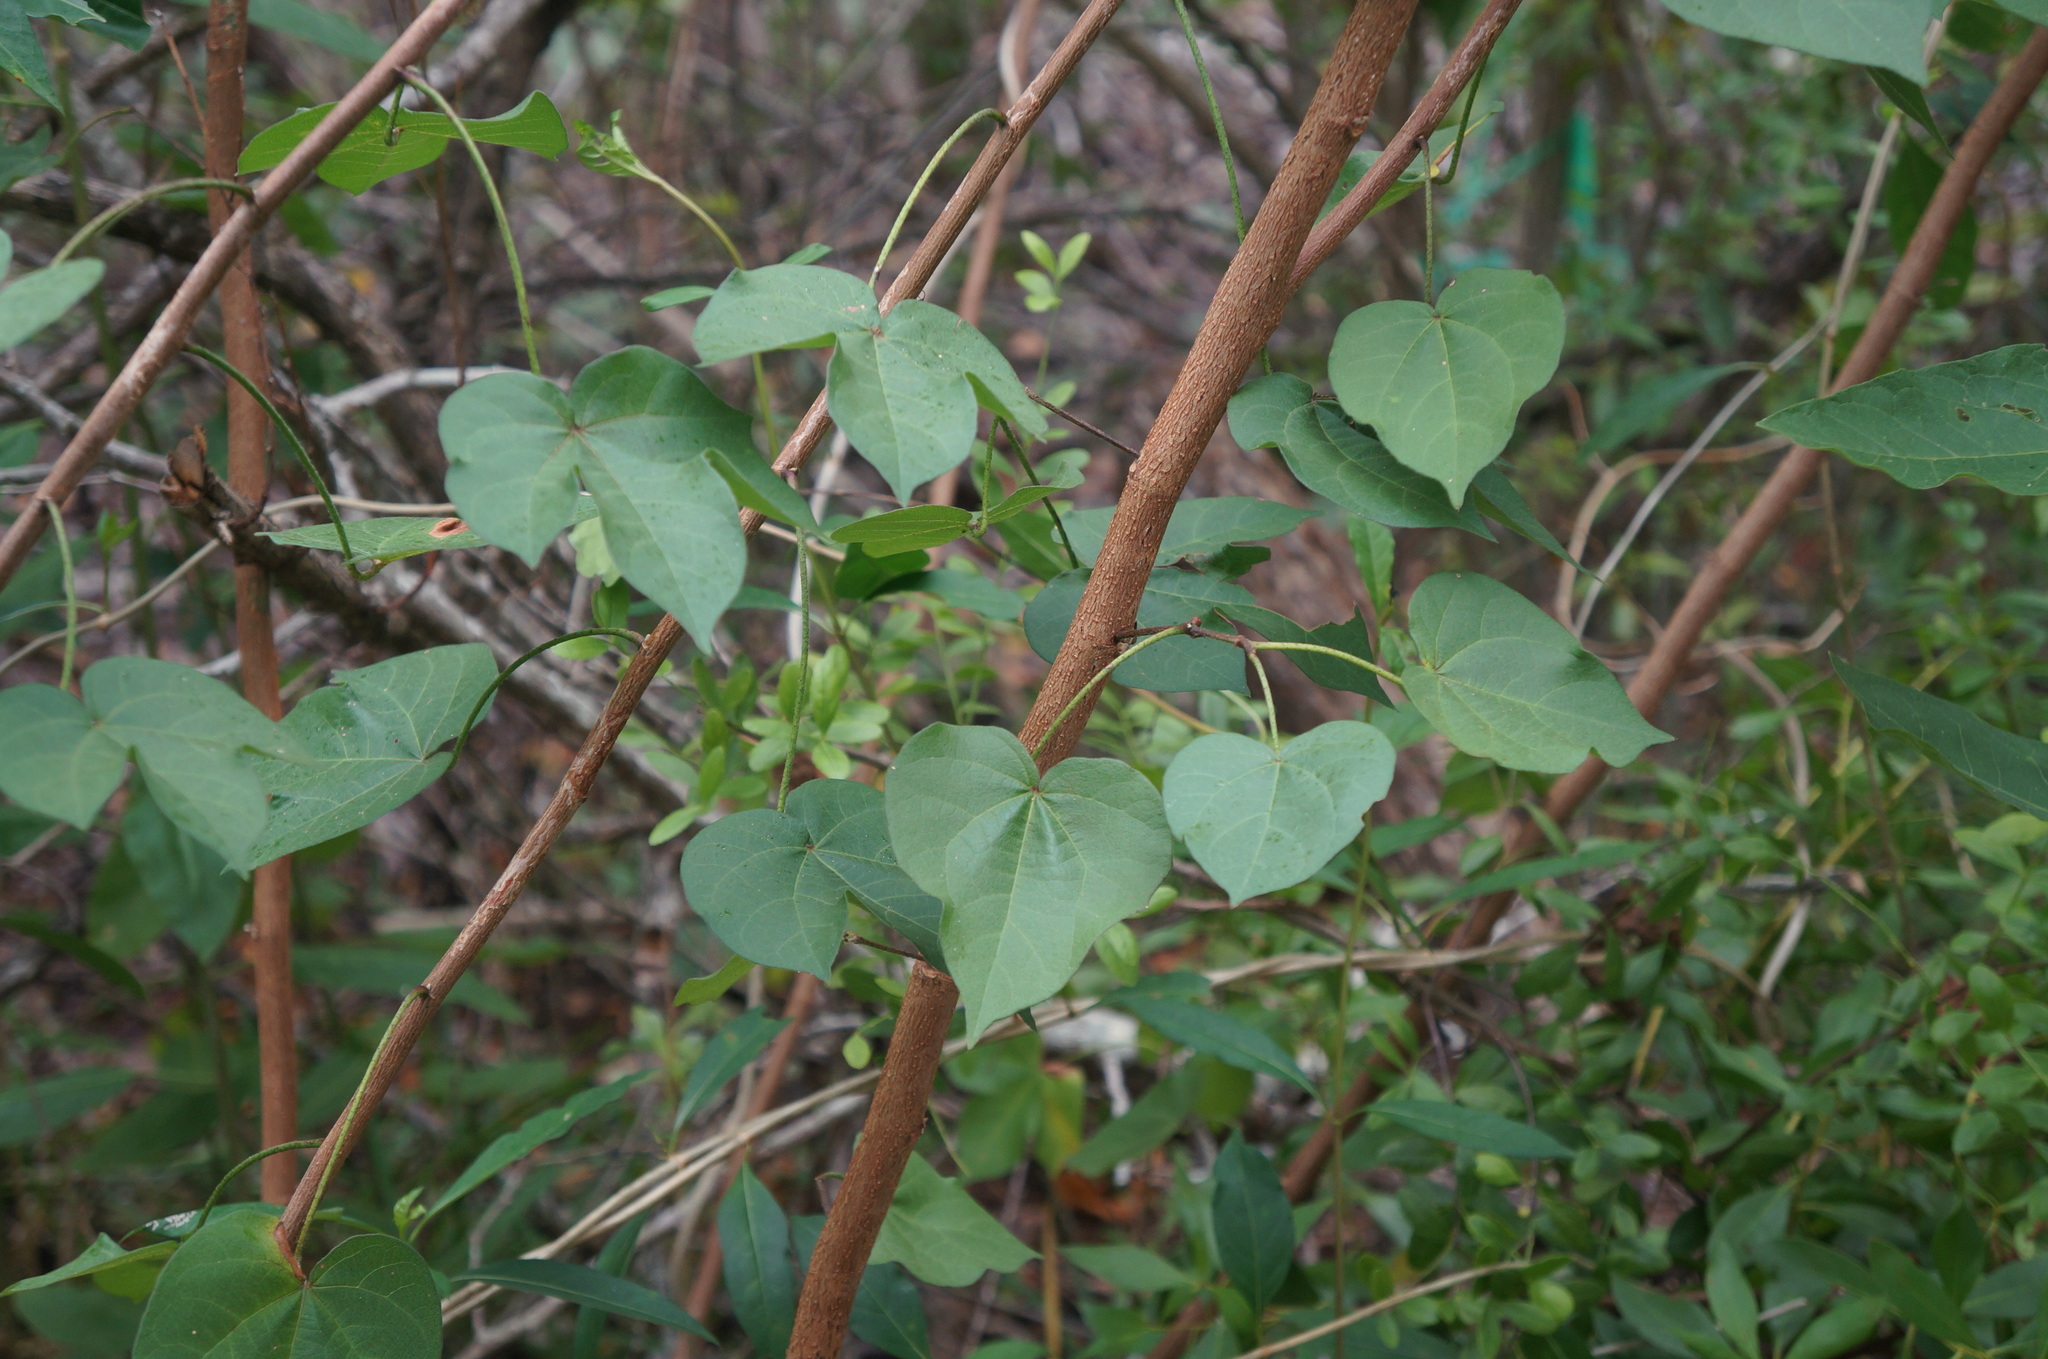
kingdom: Plantae
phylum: Tracheophyta
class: Magnoliopsida
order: Malvales
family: Malvaceae
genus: Thespesia
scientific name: Thespesia populnea
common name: Seaside mahoe
